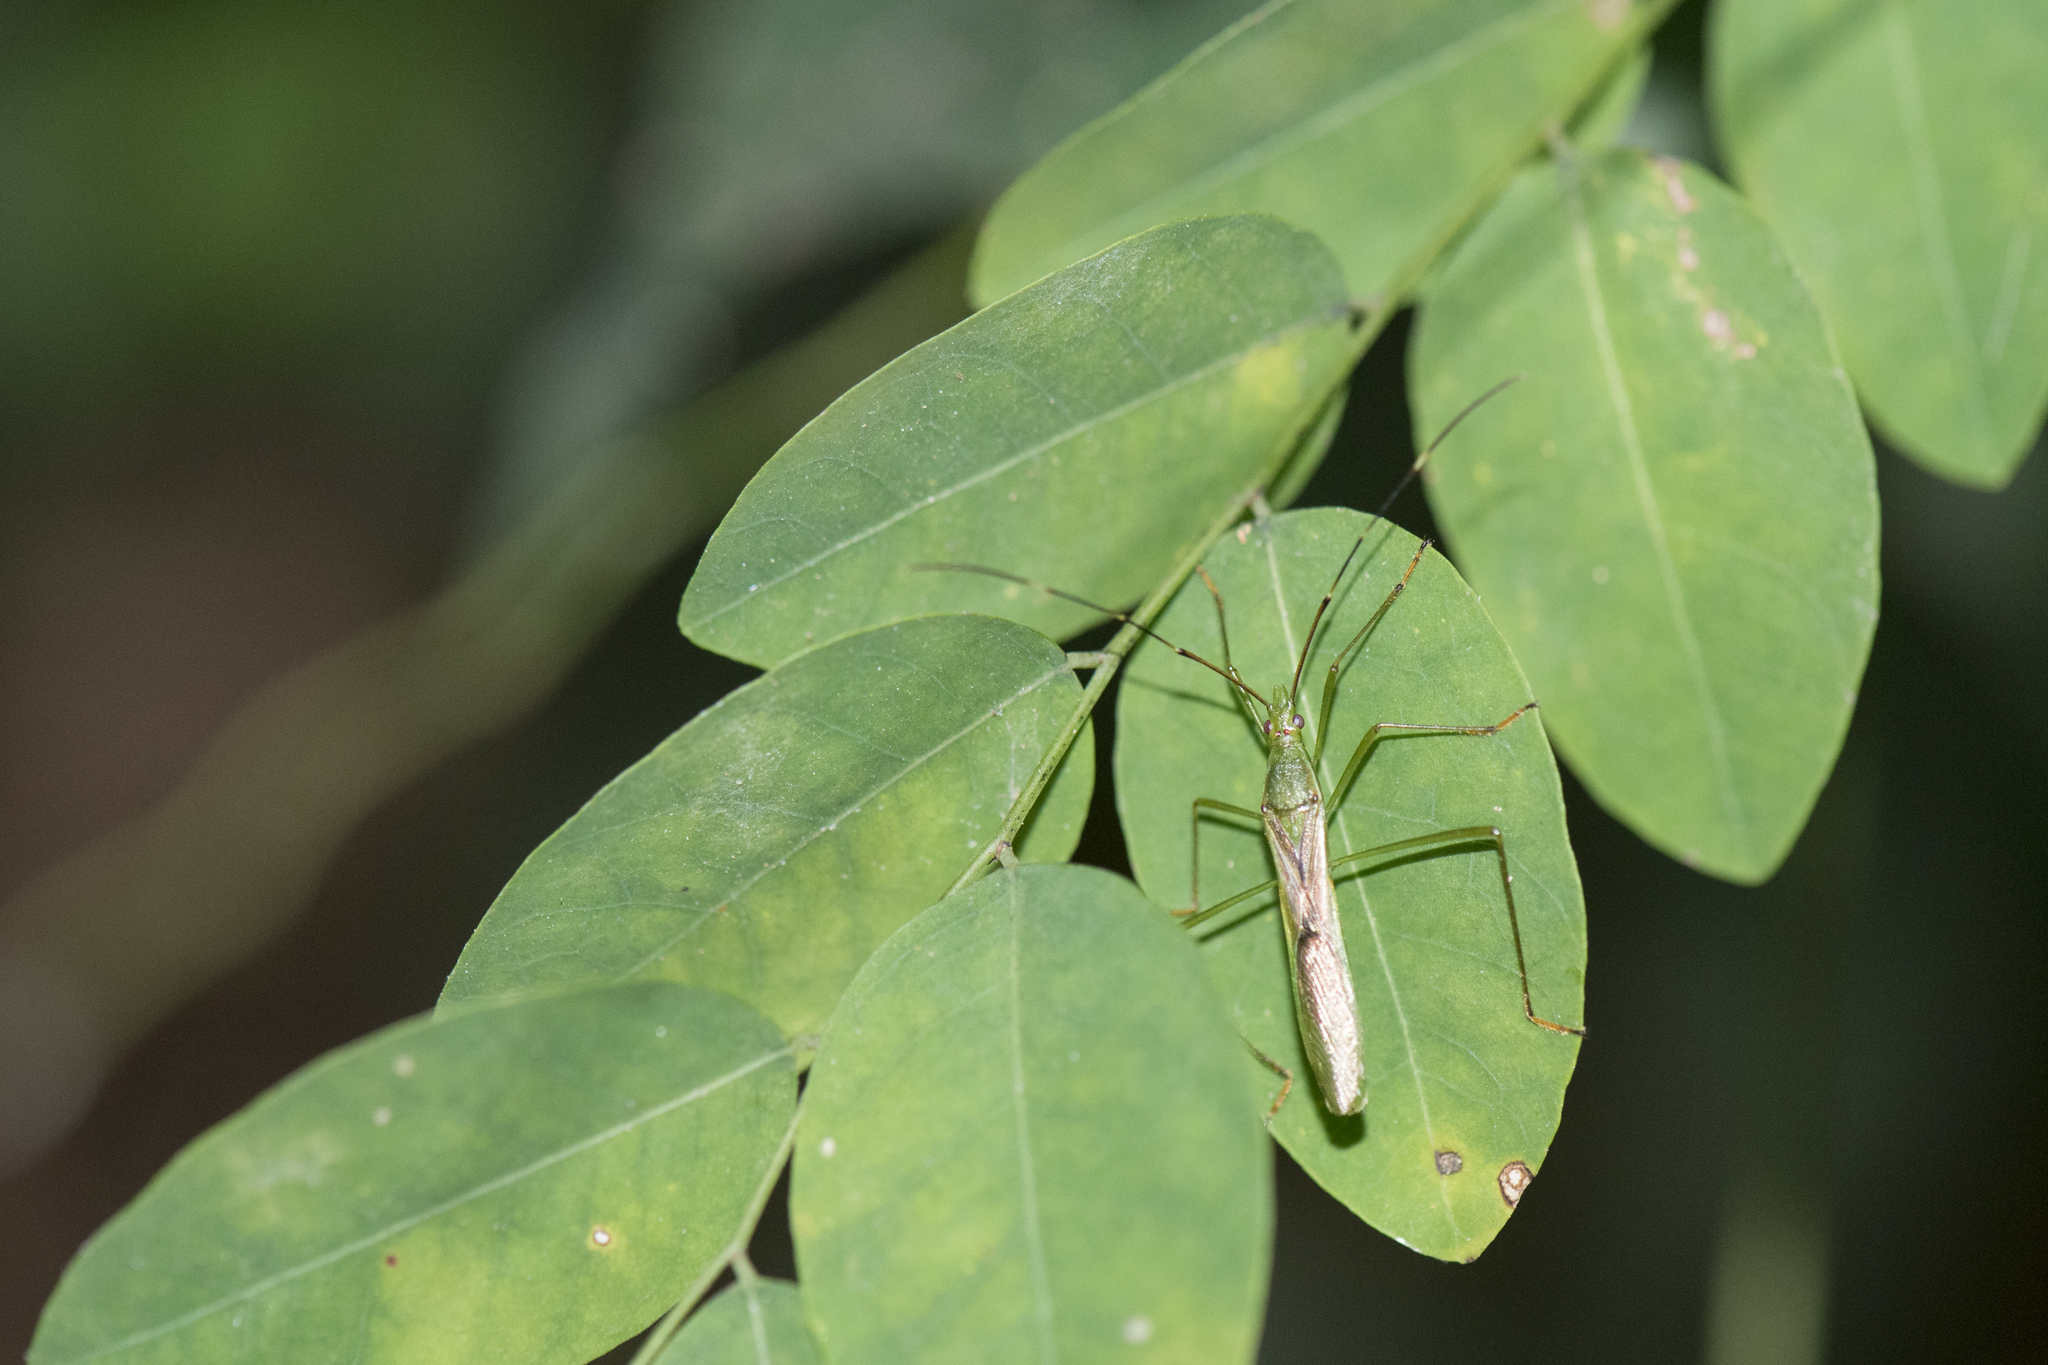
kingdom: Animalia
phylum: Arthropoda
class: Insecta
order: Hemiptera
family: Alydidae
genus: Leptocorisa
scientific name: Leptocorisa acuta
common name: Gandhi bug
